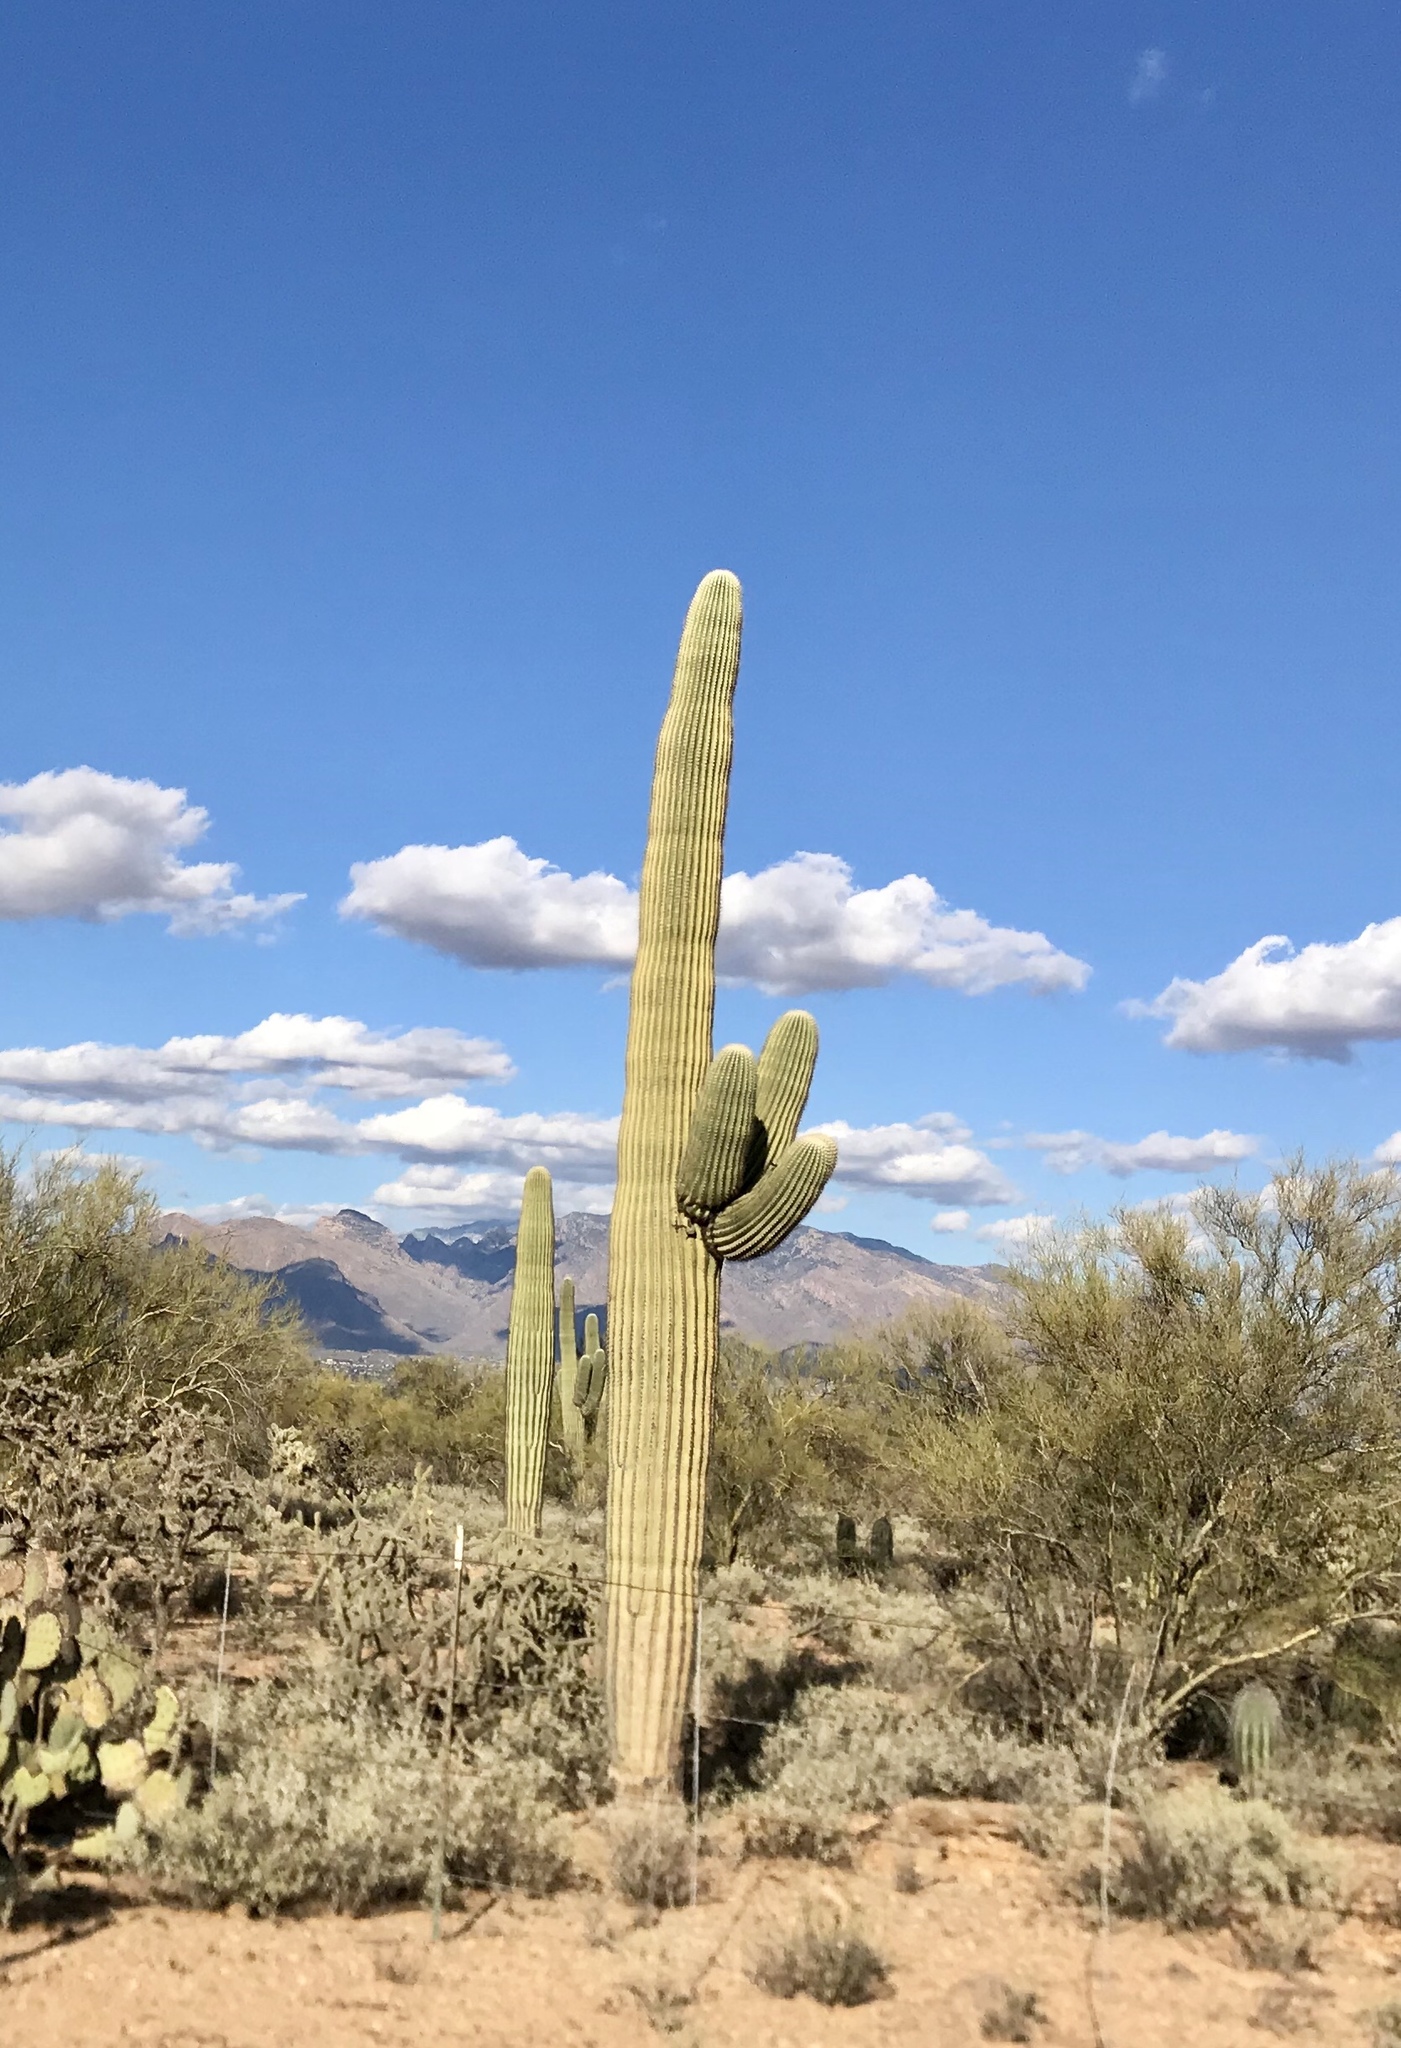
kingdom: Plantae
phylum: Tracheophyta
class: Magnoliopsida
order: Caryophyllales
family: Cactaceae
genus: Carnegiea
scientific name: Carnegiea gigantea
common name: Saguaro
